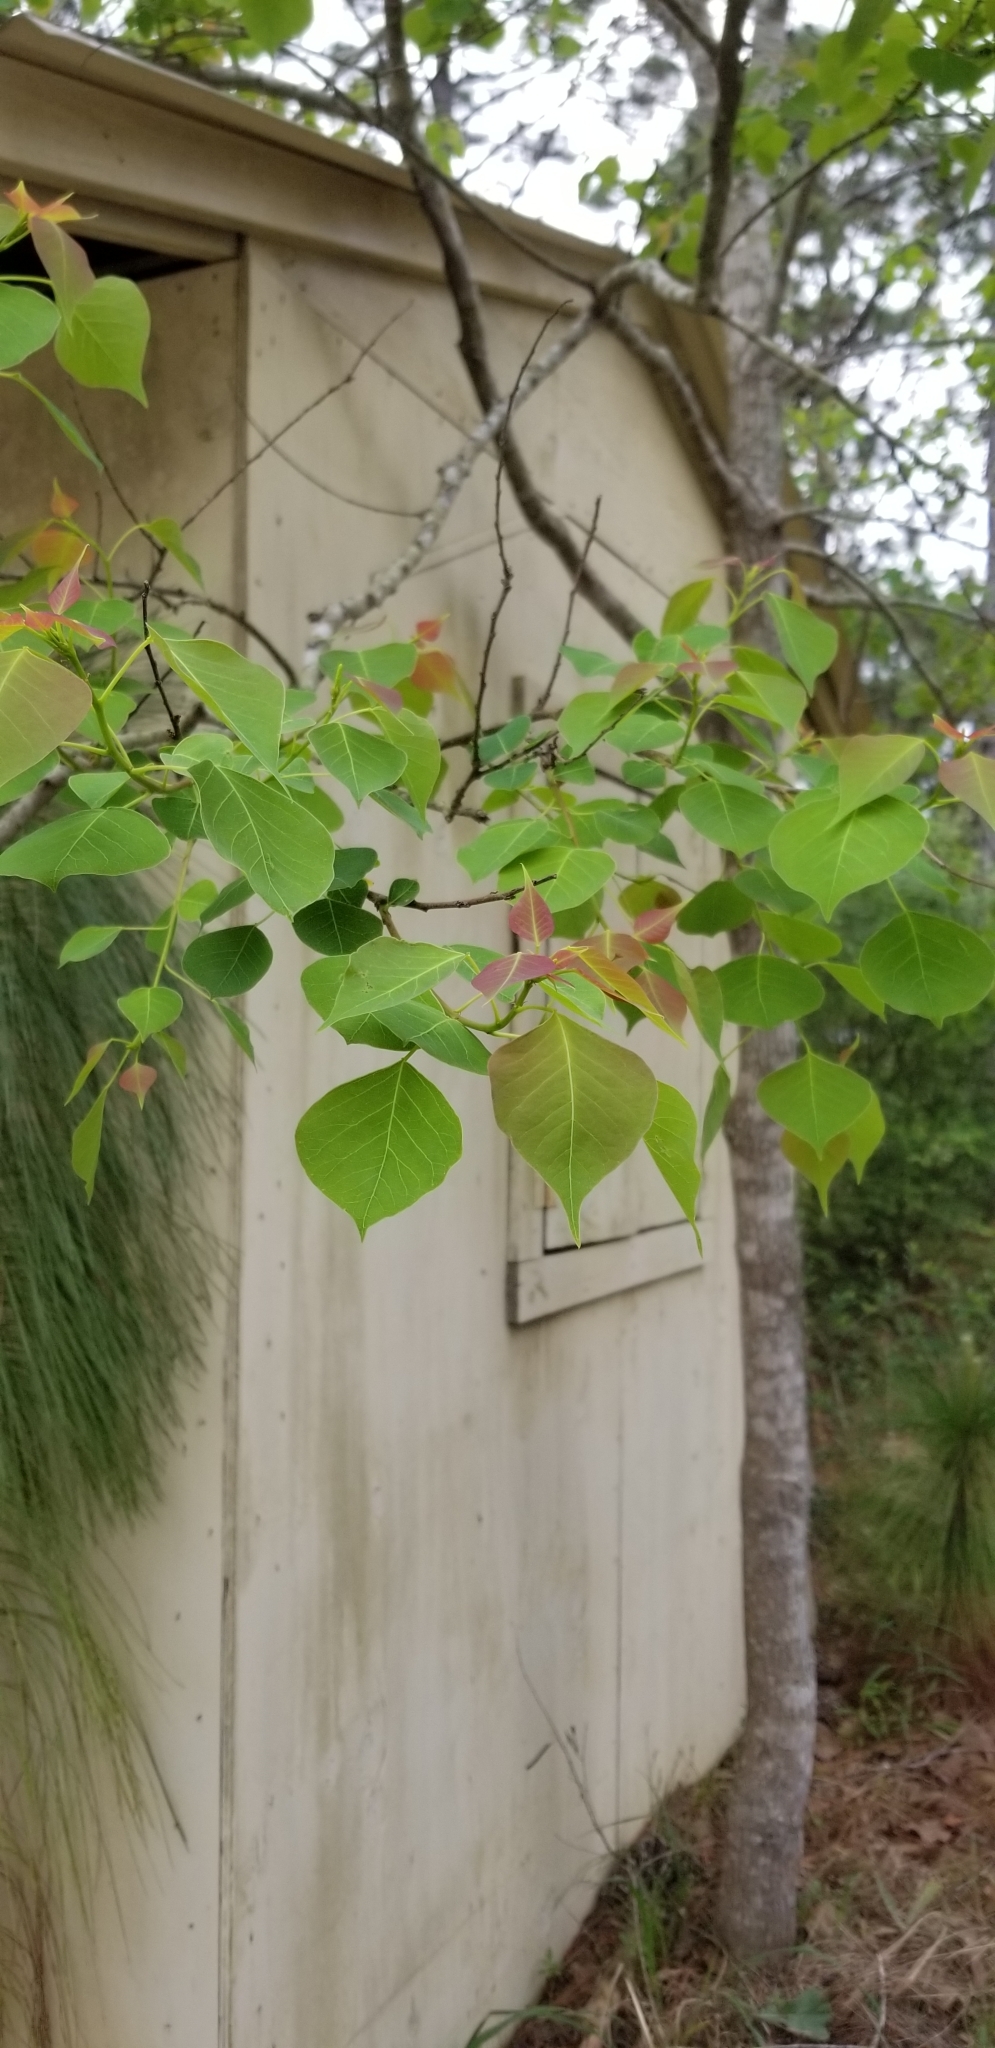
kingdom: Plantae
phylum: Tracheophyta
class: Magnoliopsida
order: Malpighiales
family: Euphorbiaceae
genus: Triadica
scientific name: Triadica sebifera
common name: Chinese tallow
